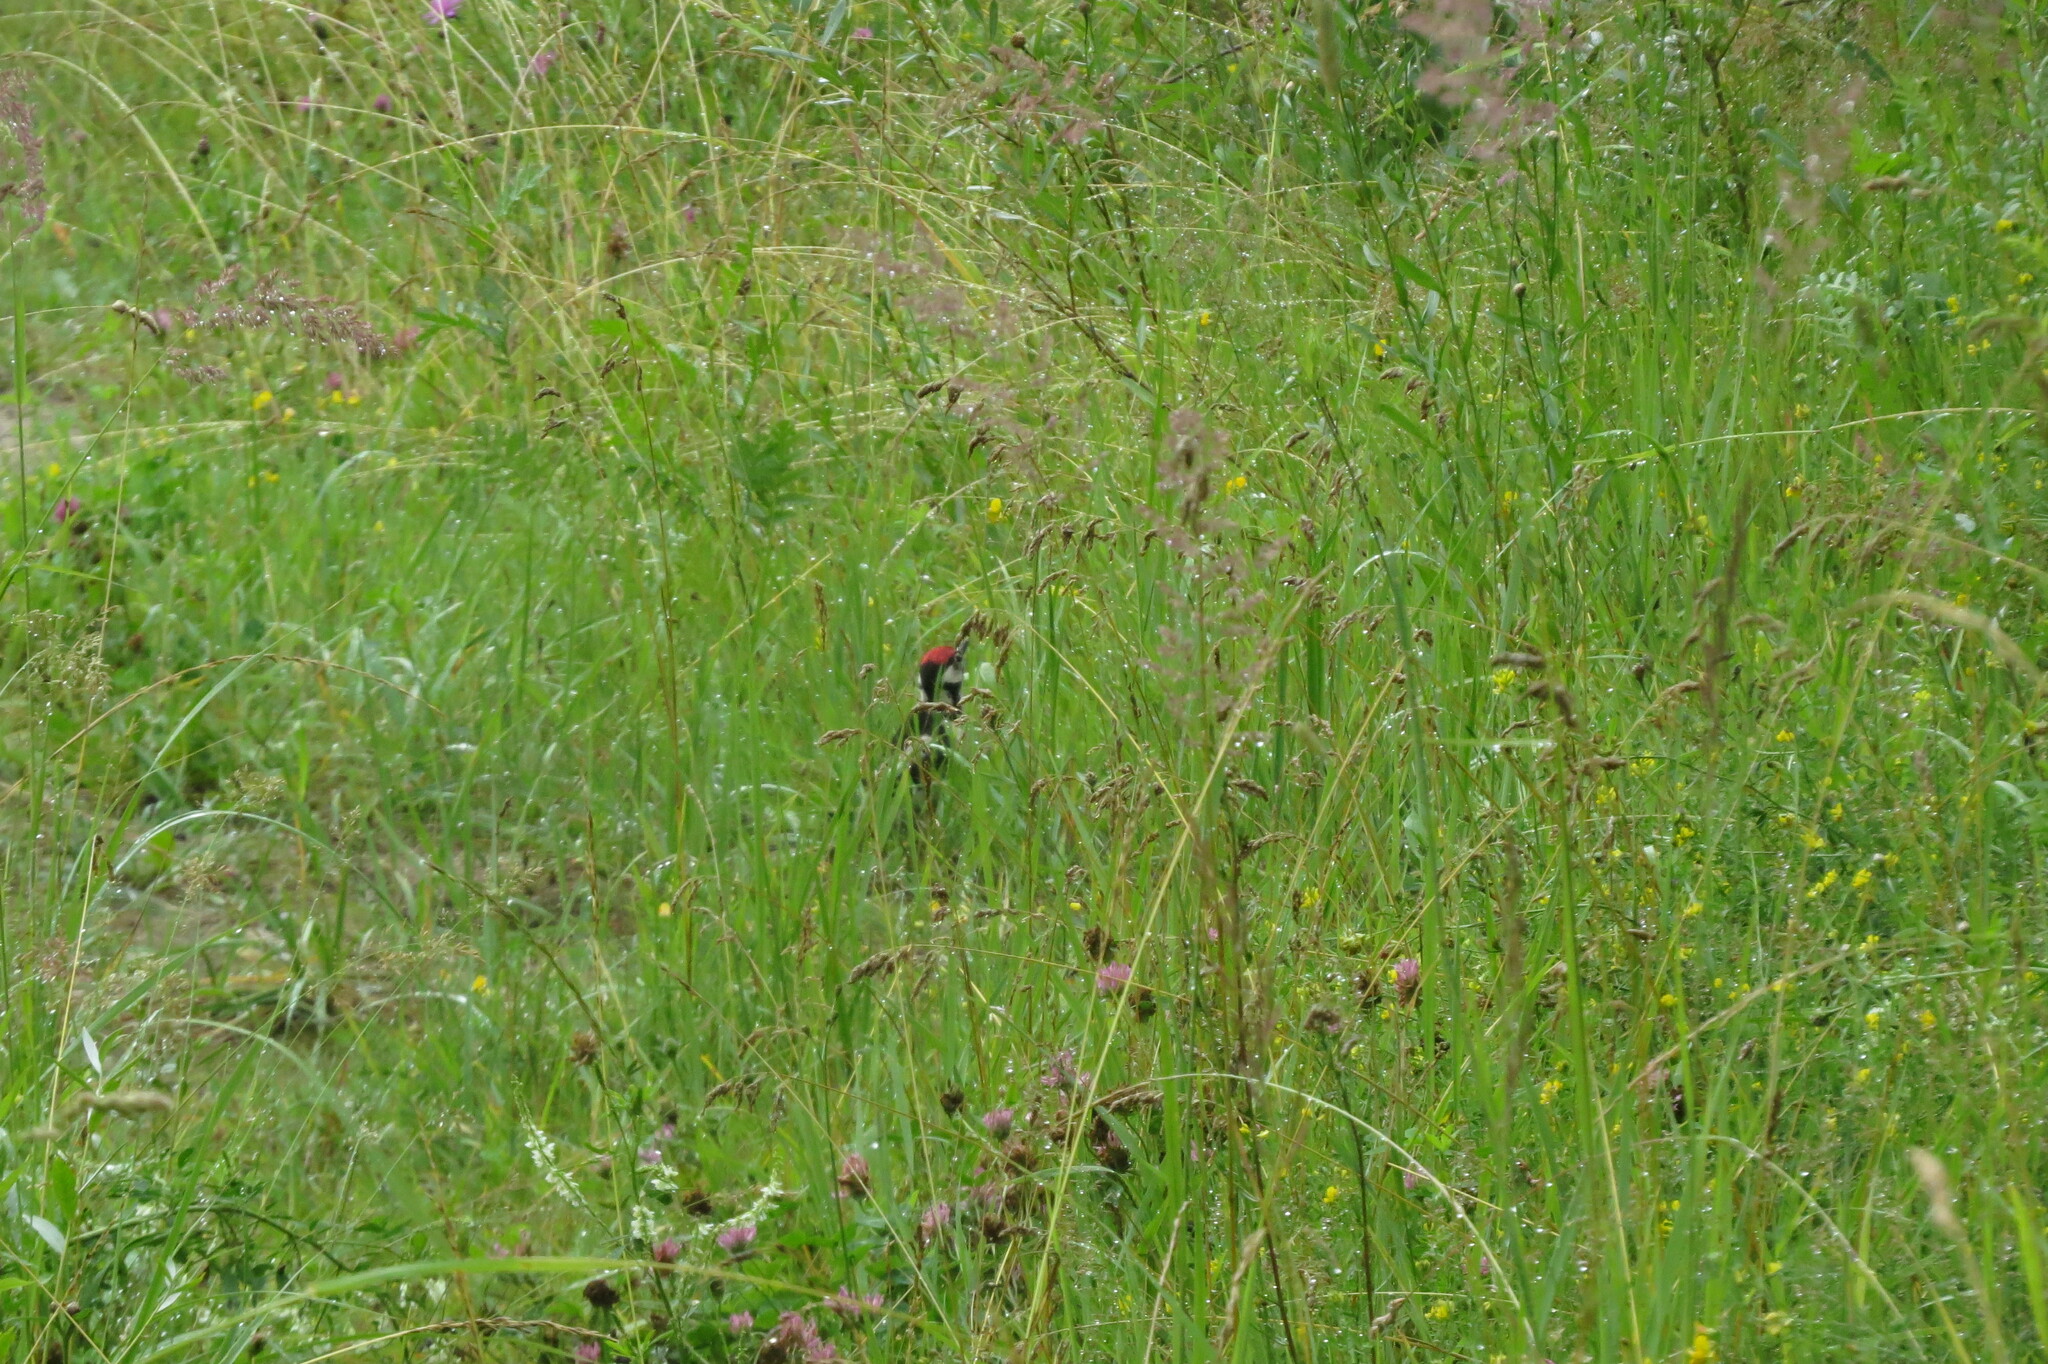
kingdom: Animalia
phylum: Chordata
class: Aves
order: Piciformes
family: Picidae
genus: Dendrocopos
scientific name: Dendrocopos major
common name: Great spotted woodpecker
